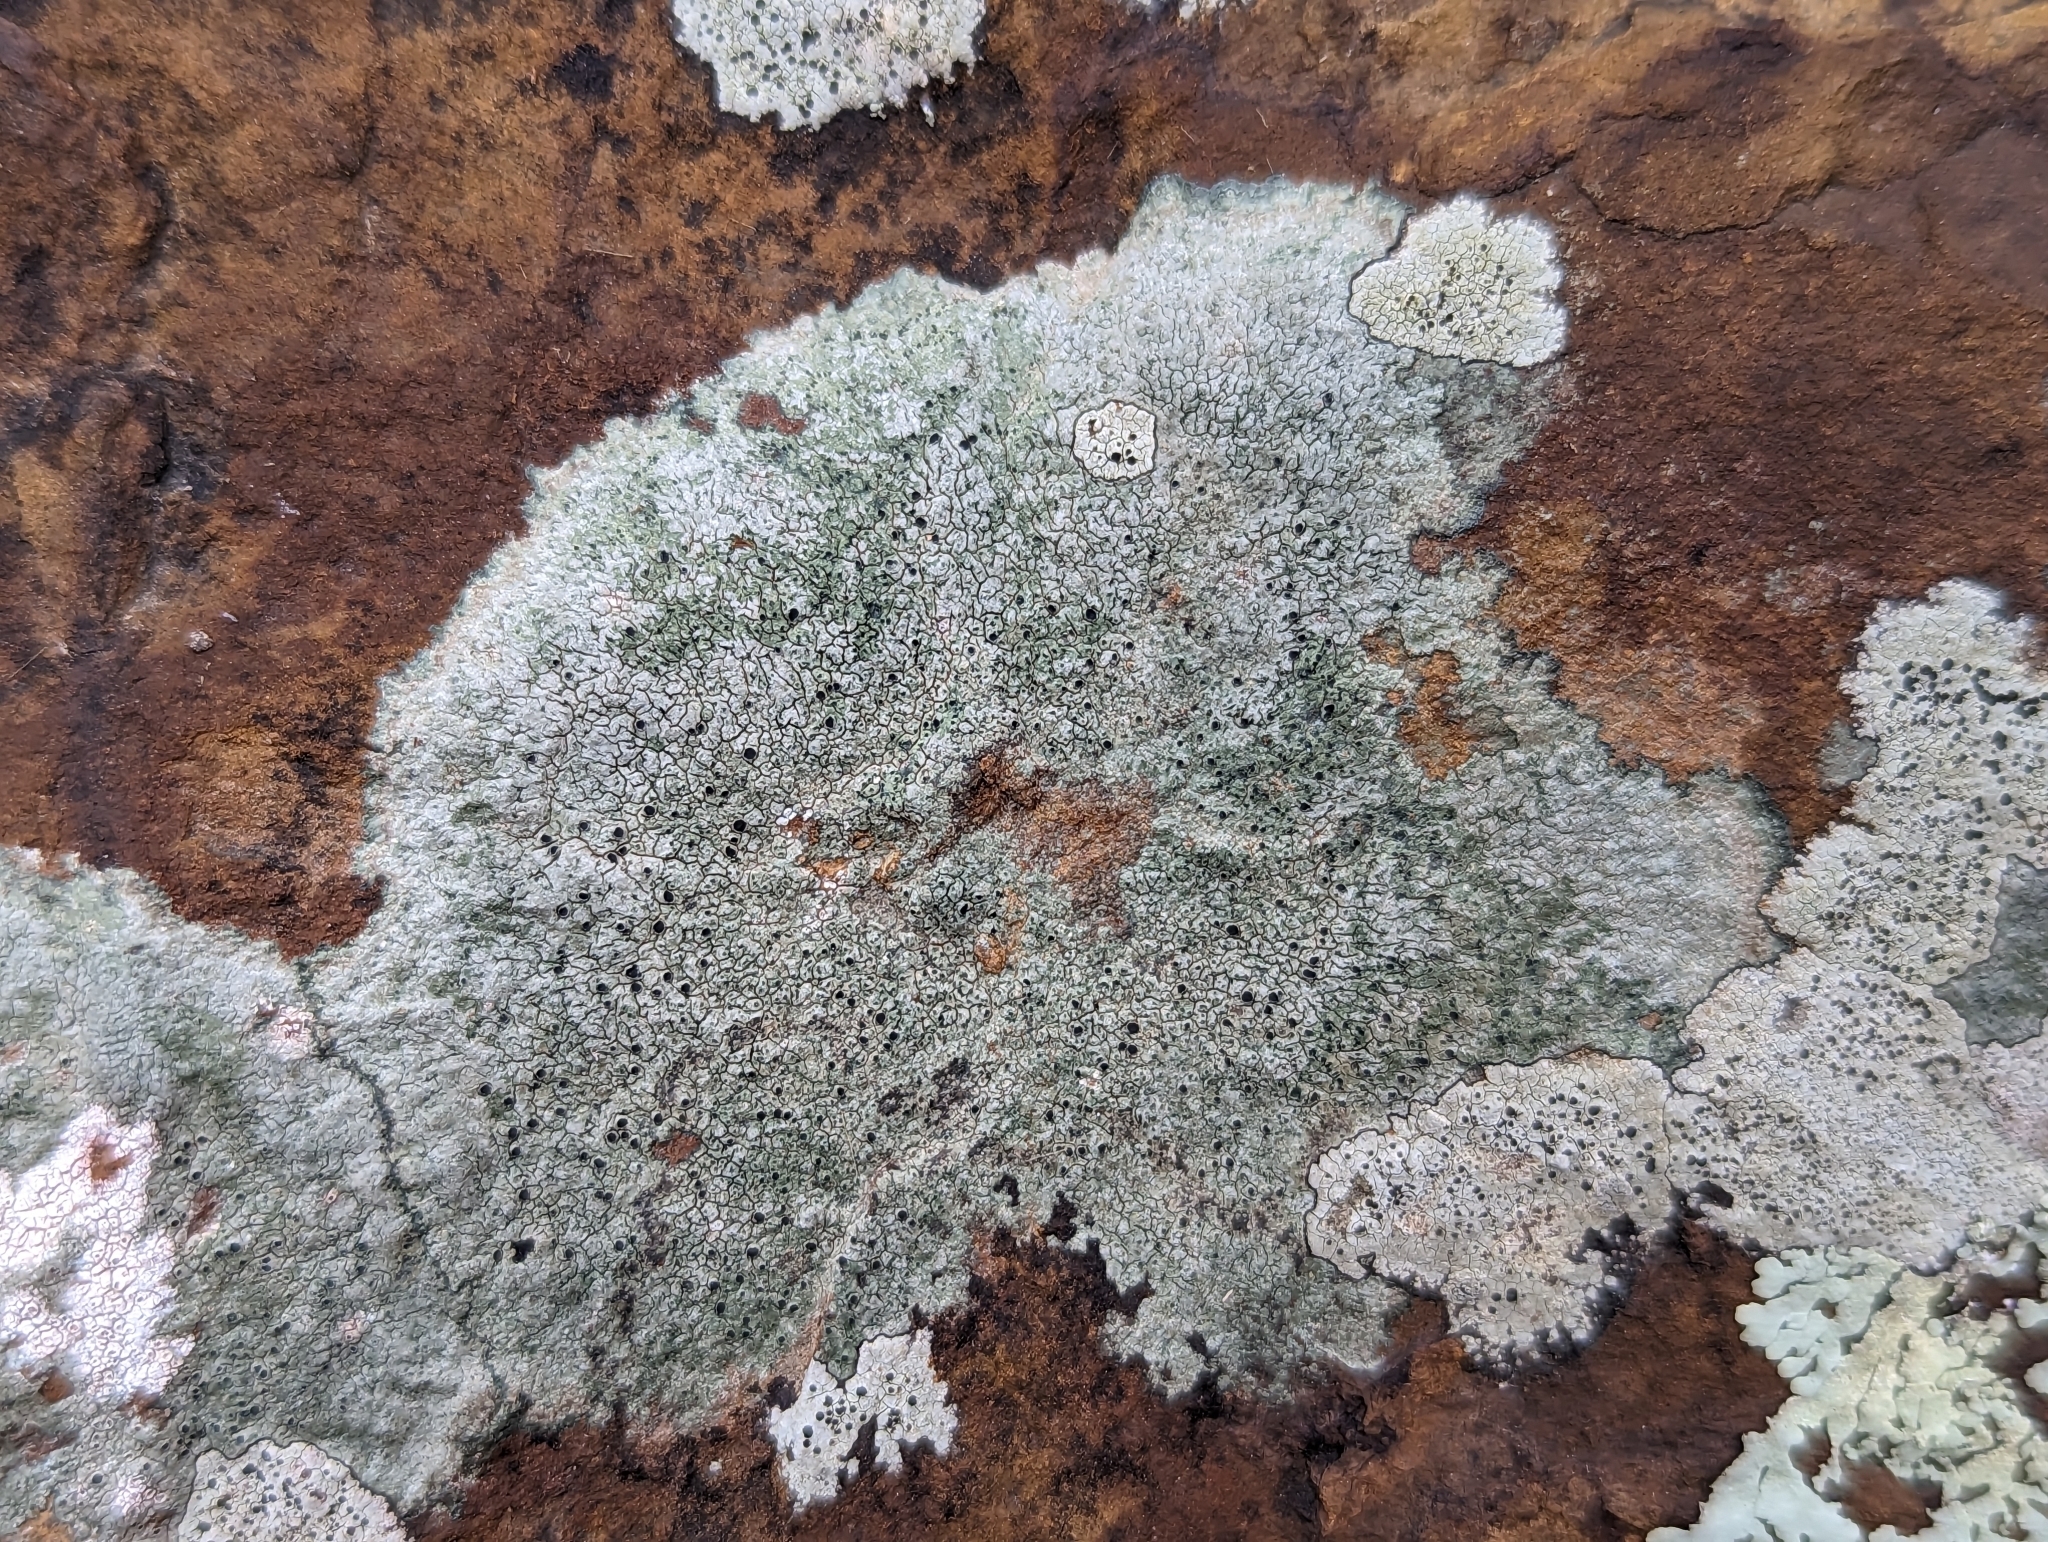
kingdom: Fungi
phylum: Ascomycota
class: Lecanoromycetes
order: Pertusariales
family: Megasporaceae
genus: Aspicilia
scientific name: Aspicilia laevata
